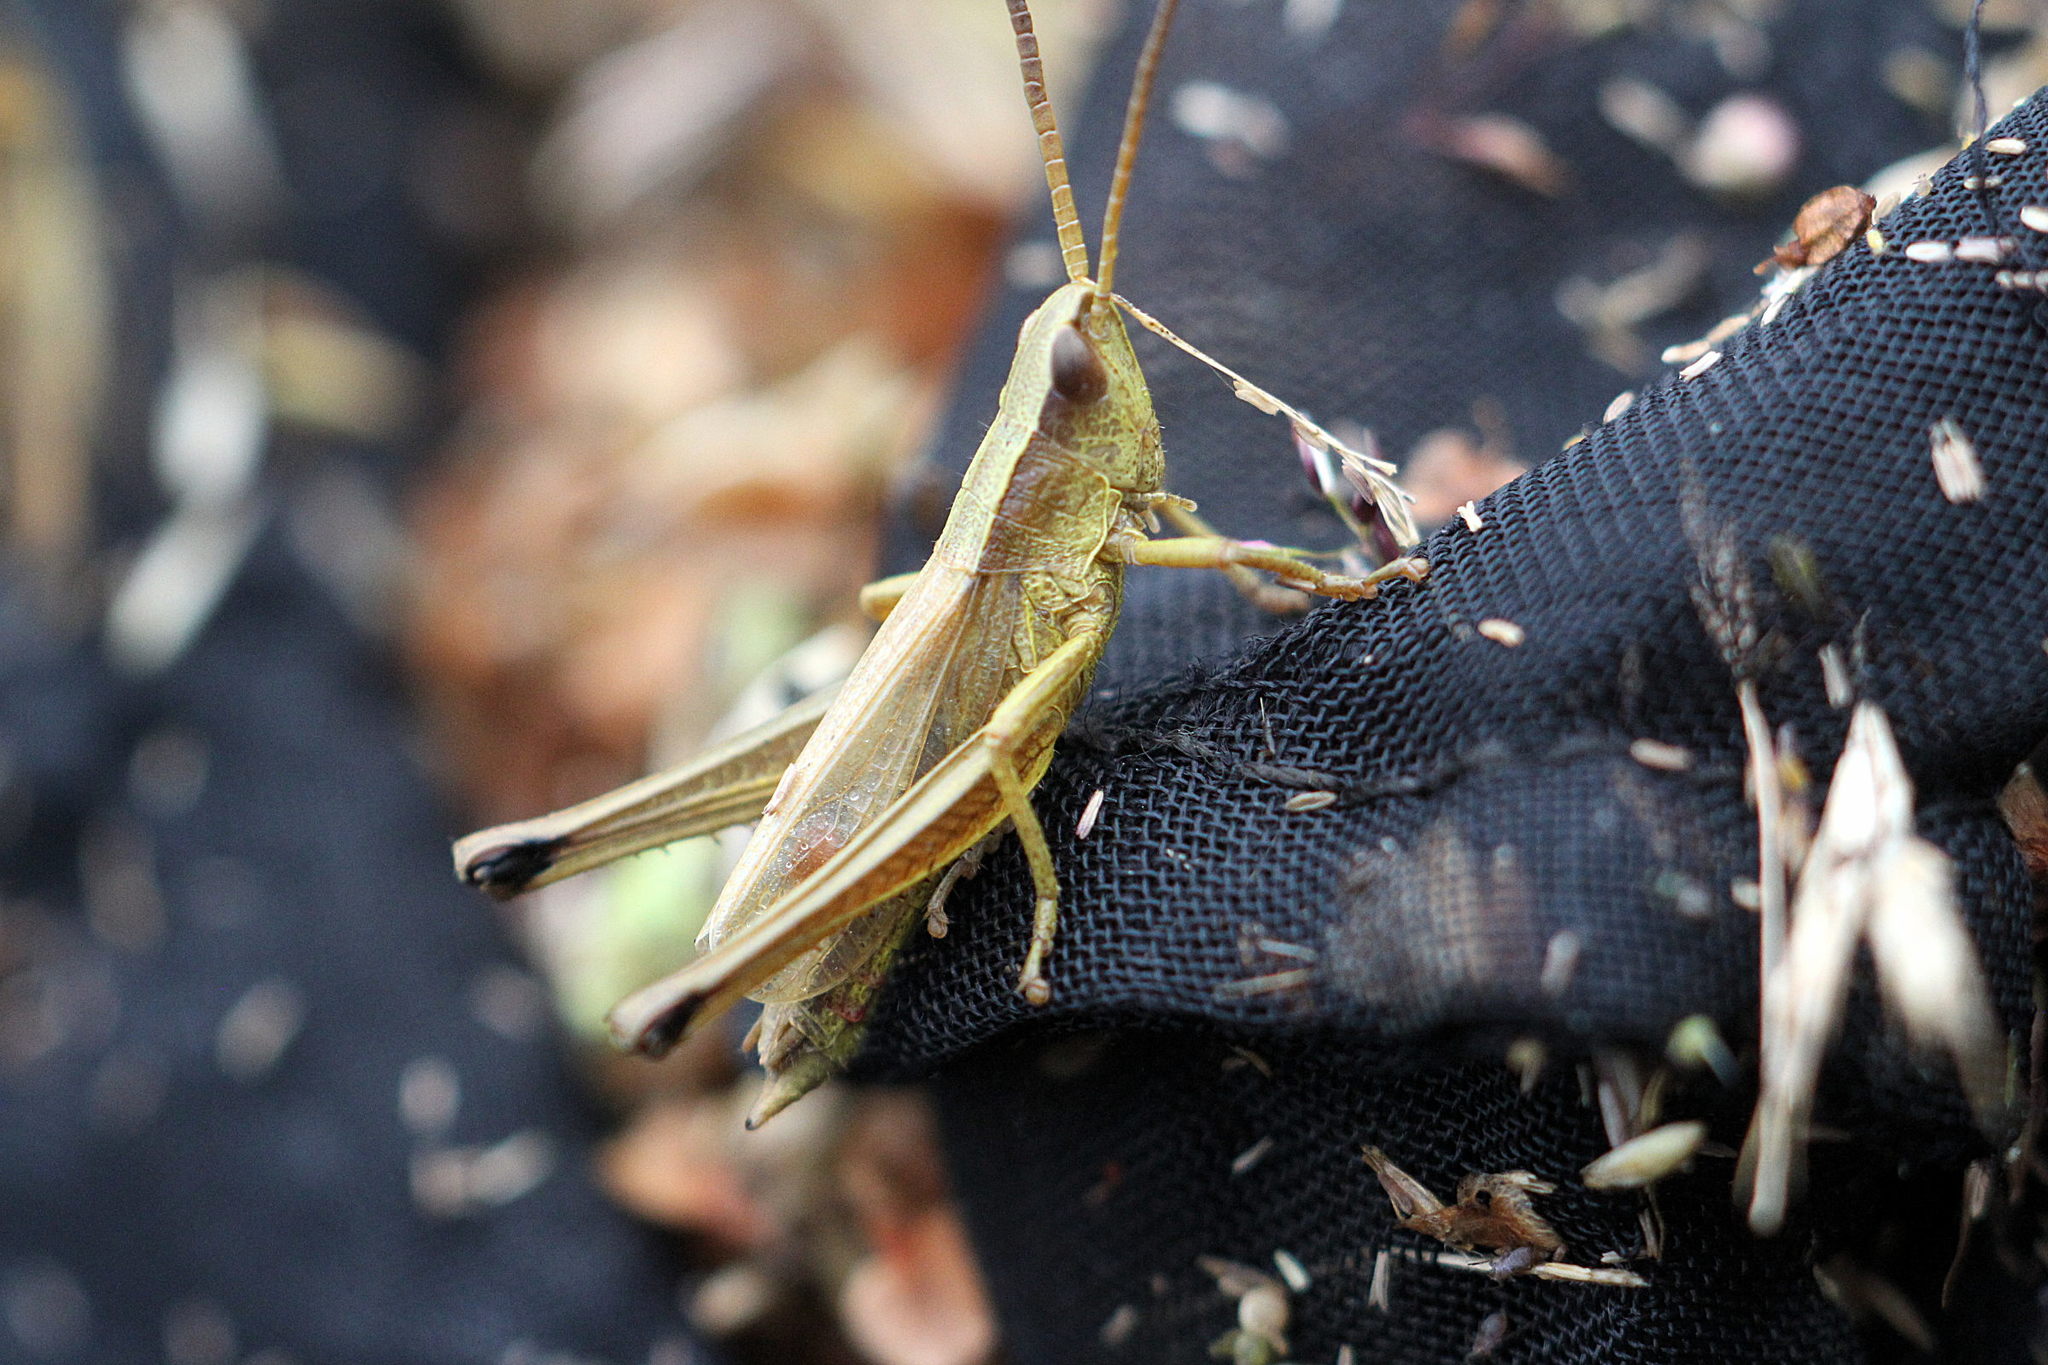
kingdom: Animalia
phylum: Arthropoda
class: Insecta
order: Orthoptera
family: Acrididae
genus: Chrysochraon
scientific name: Chrysochraon dispar
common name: Large gold grasshopper
